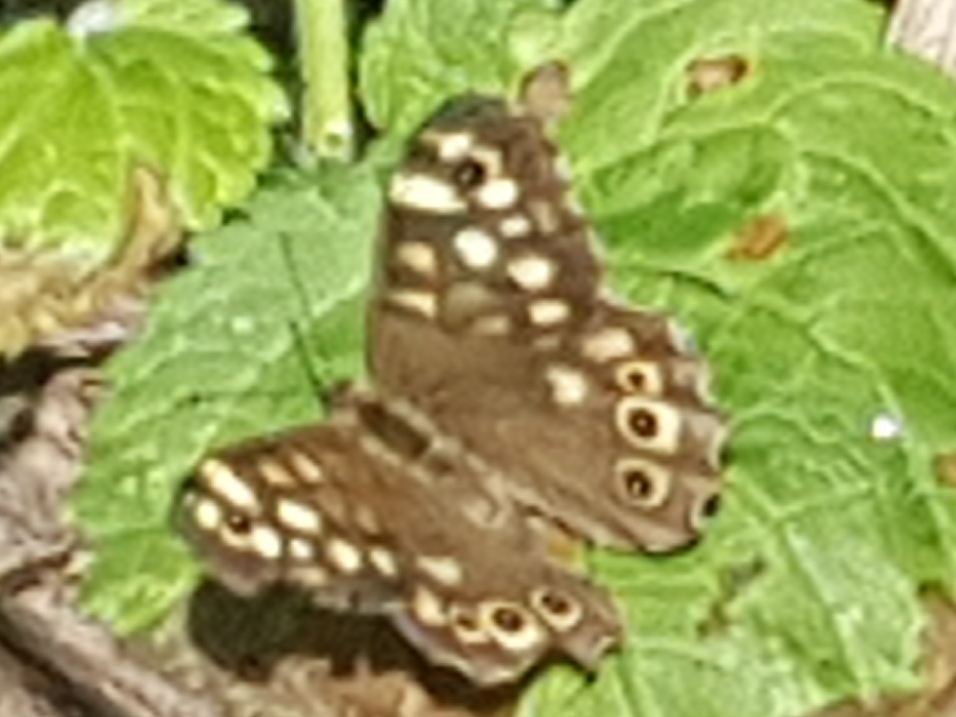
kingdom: Animalia
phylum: Arthropoda
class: Insecta
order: Lepidoptera
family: Nymphalidae
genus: Pararge
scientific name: Pararge aegeria
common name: Speckled wood
